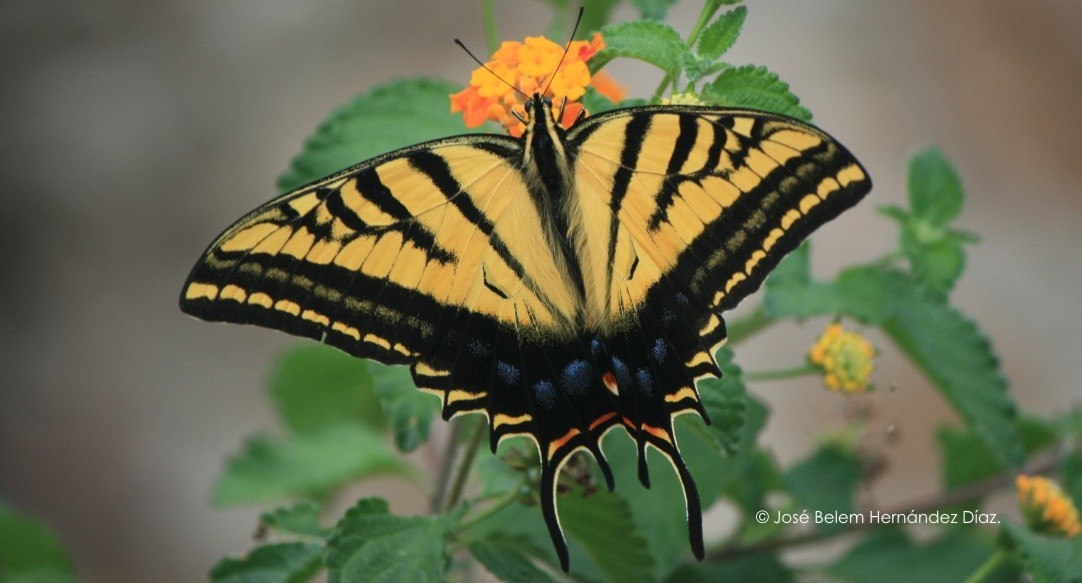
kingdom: Animalia
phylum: Arthropoda
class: Insecta
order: Lepidoptera
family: Papilionidae
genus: Papilio
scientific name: Papilio multicaudata
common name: Two-tailed tiger swallowtail
